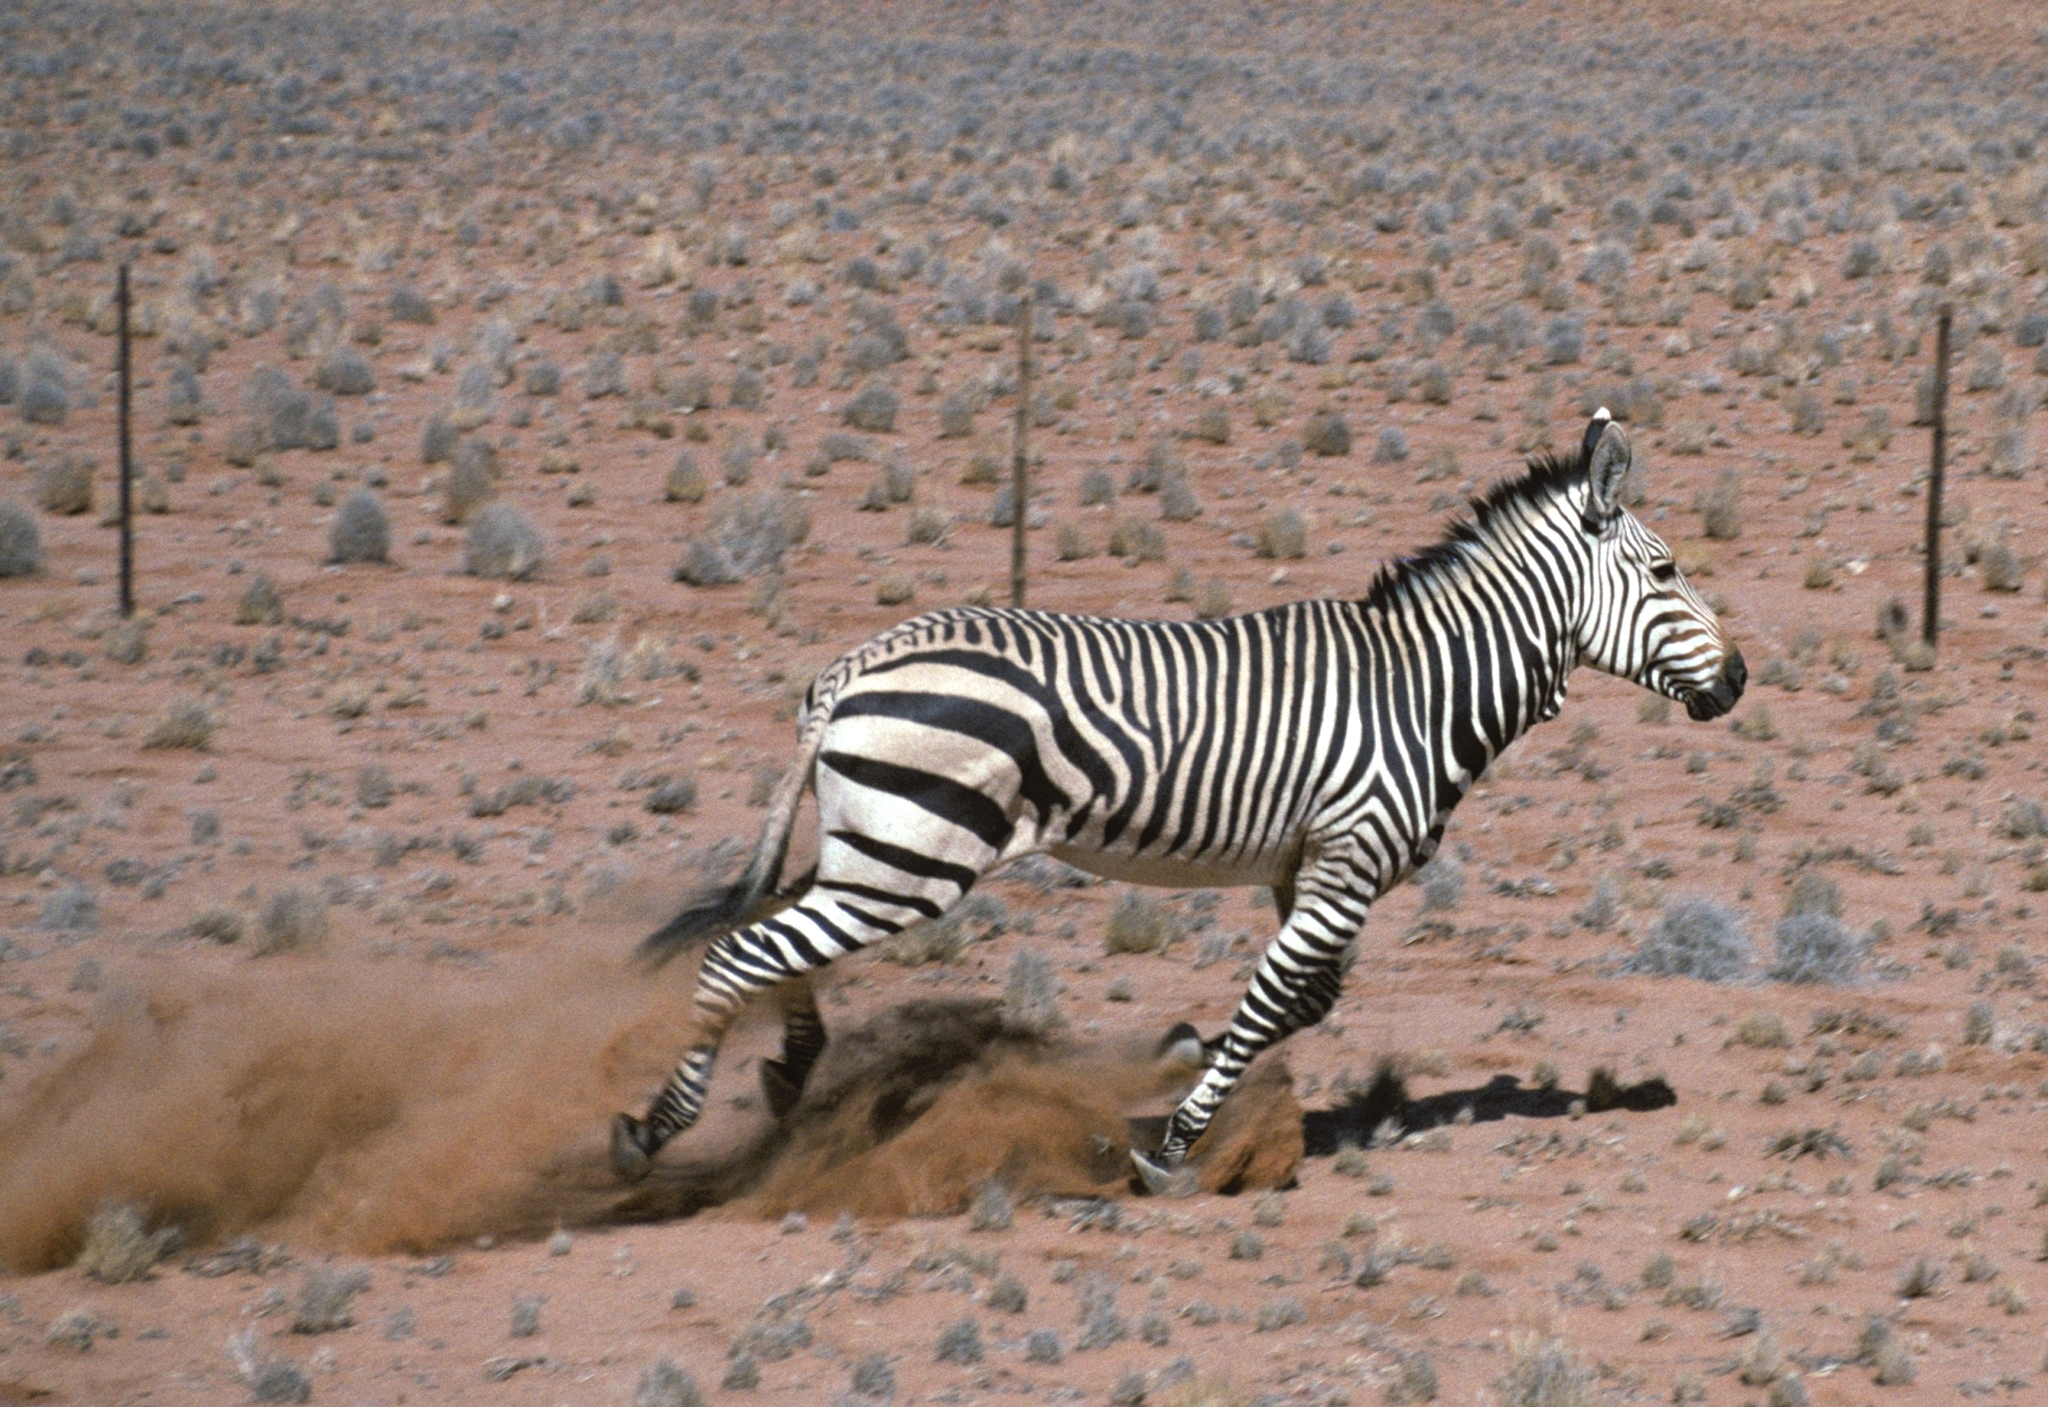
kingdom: Animalia
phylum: Chordata
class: Mammalia
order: Perissodactyla
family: Equidae
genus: Equus
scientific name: Equus hartmannae
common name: Hartmann's mountain zebra
